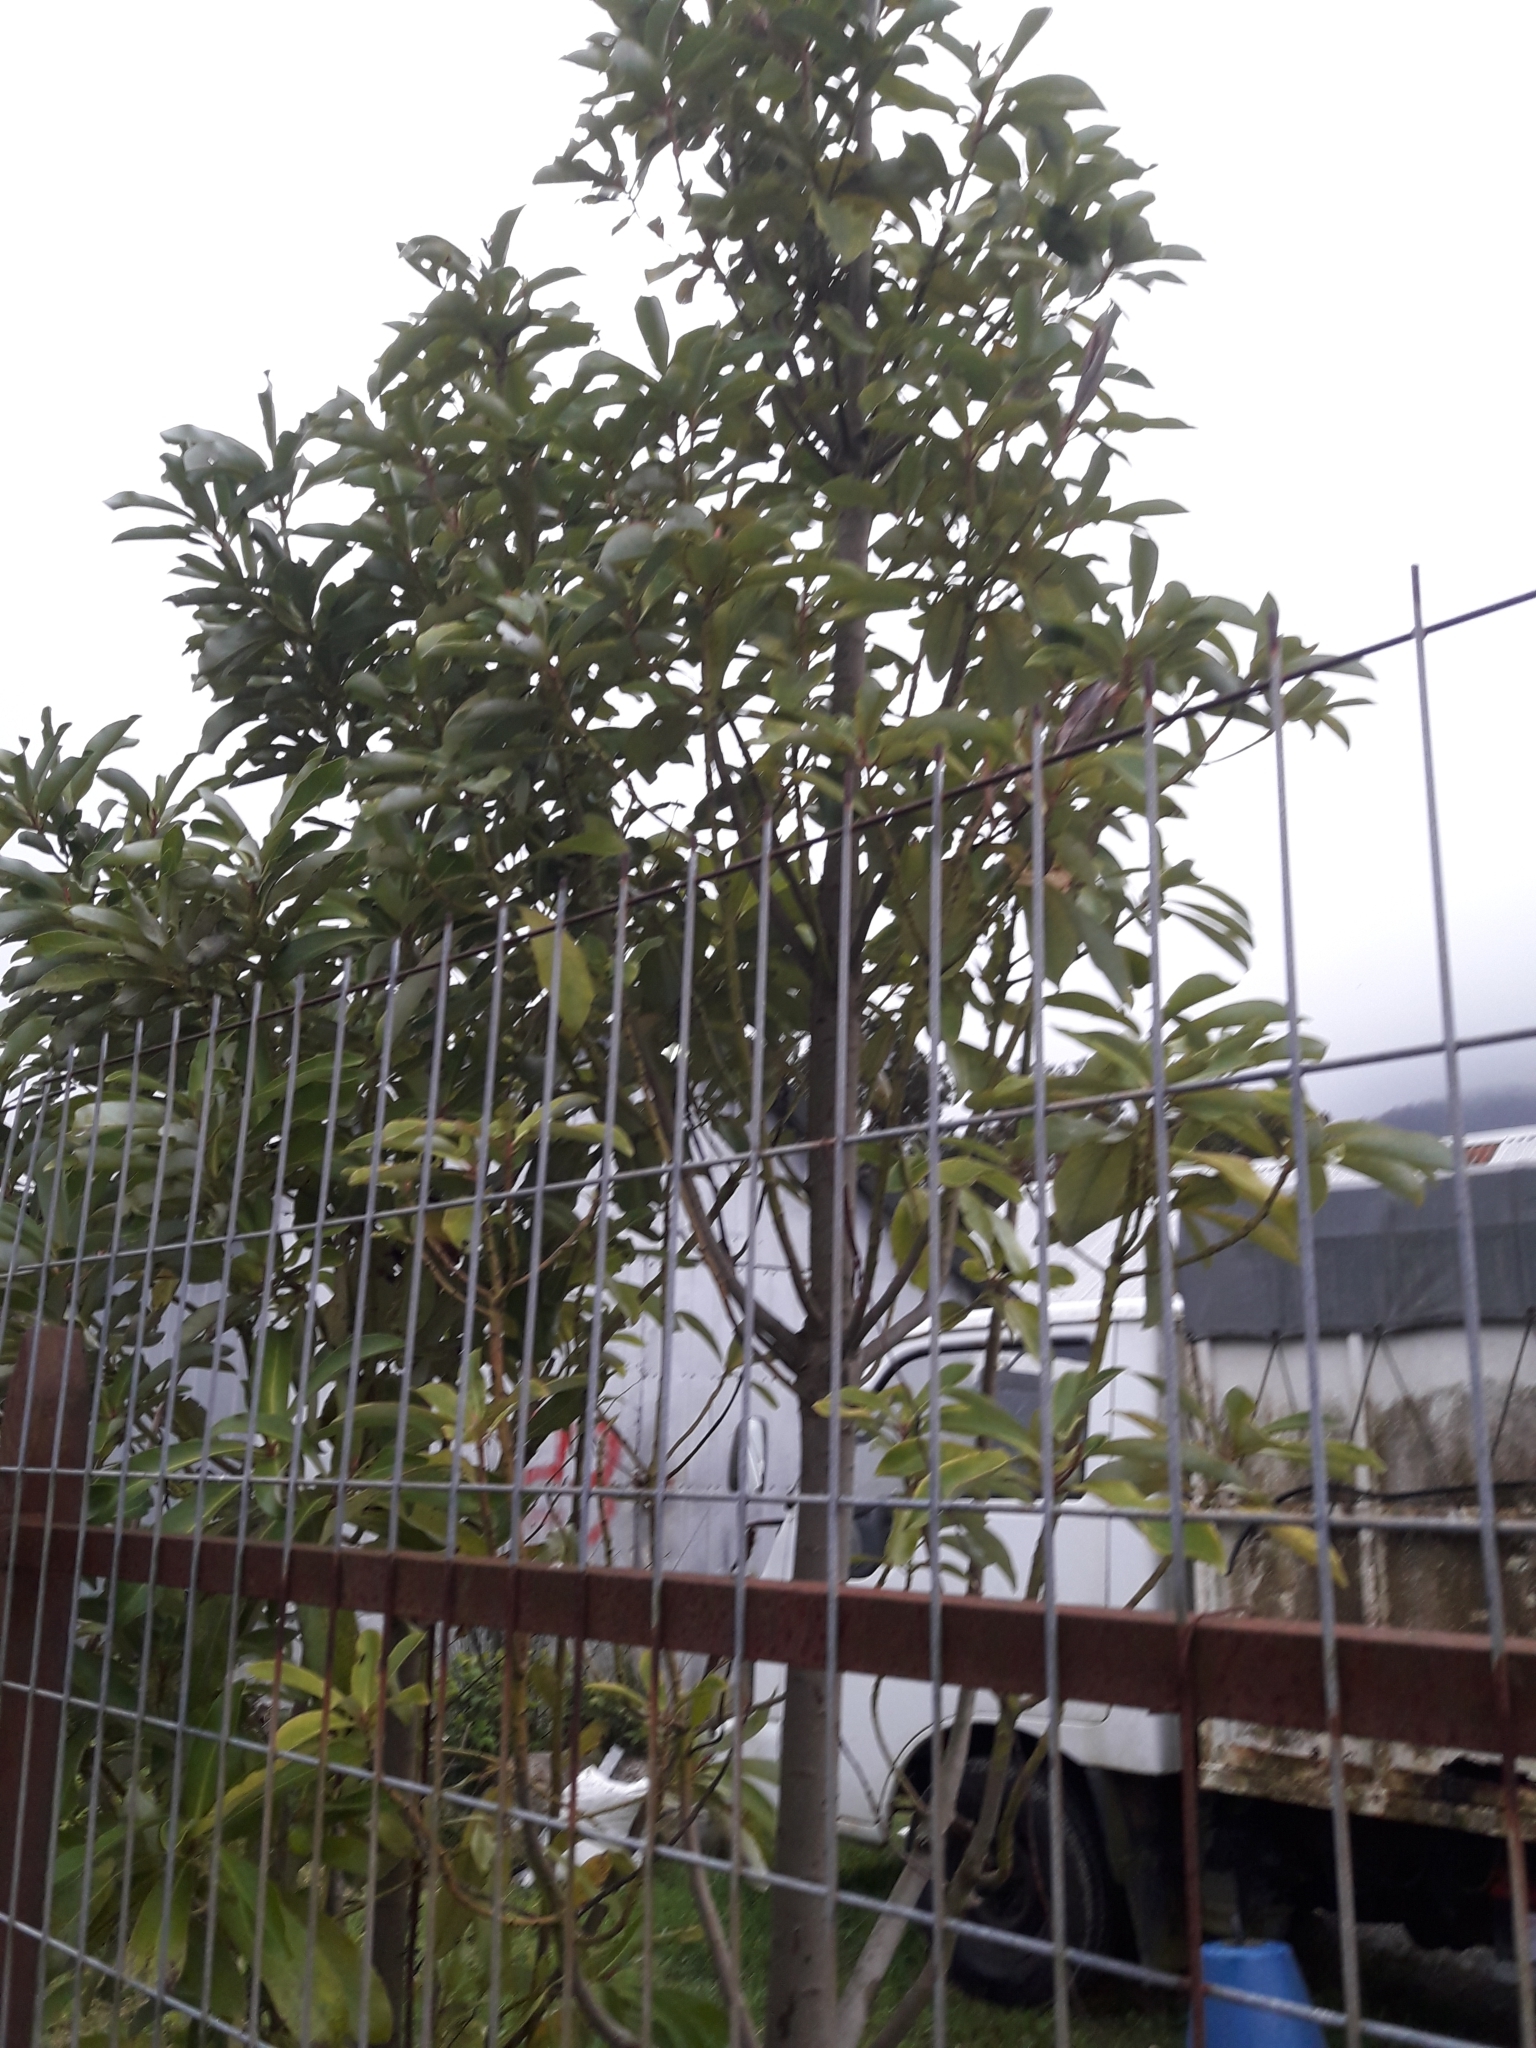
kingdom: Plantae
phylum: Tracheophyta
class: Magnoliopsida
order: Canellales
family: Winteraceae
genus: Drimys
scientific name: Drimys winteri
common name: Winter's-bark
